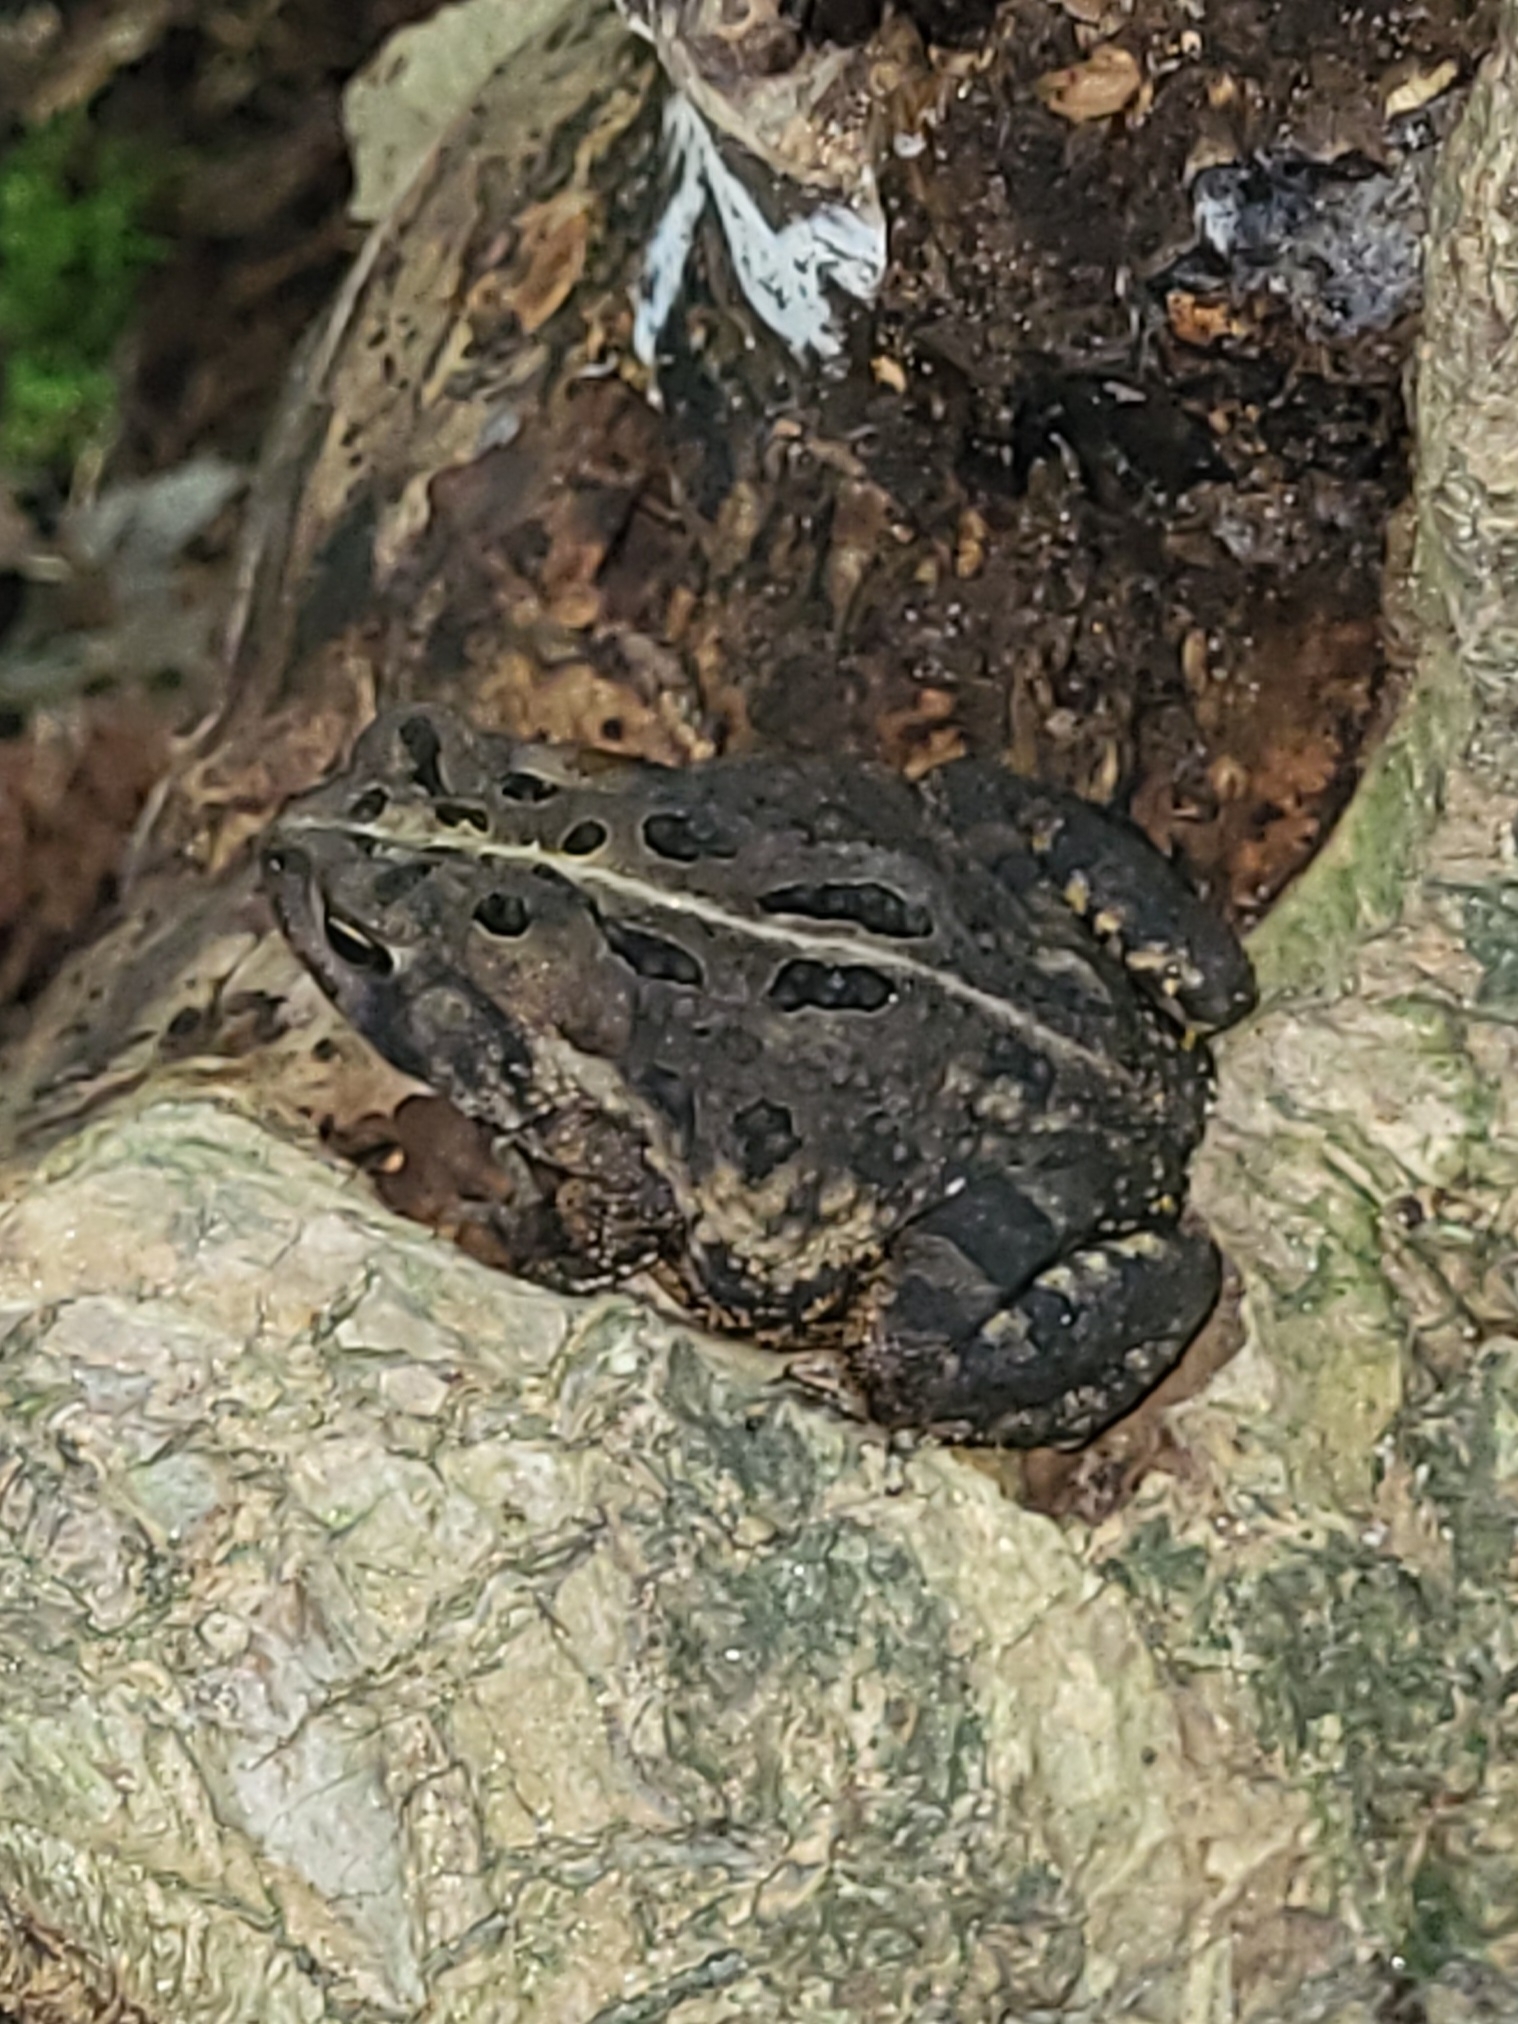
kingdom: Animalia
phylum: Chordata
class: Amphibia
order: Anura
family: Bufonidae
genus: Anaxyrus
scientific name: Anaxyrus fowleri
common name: Fowler's toad
